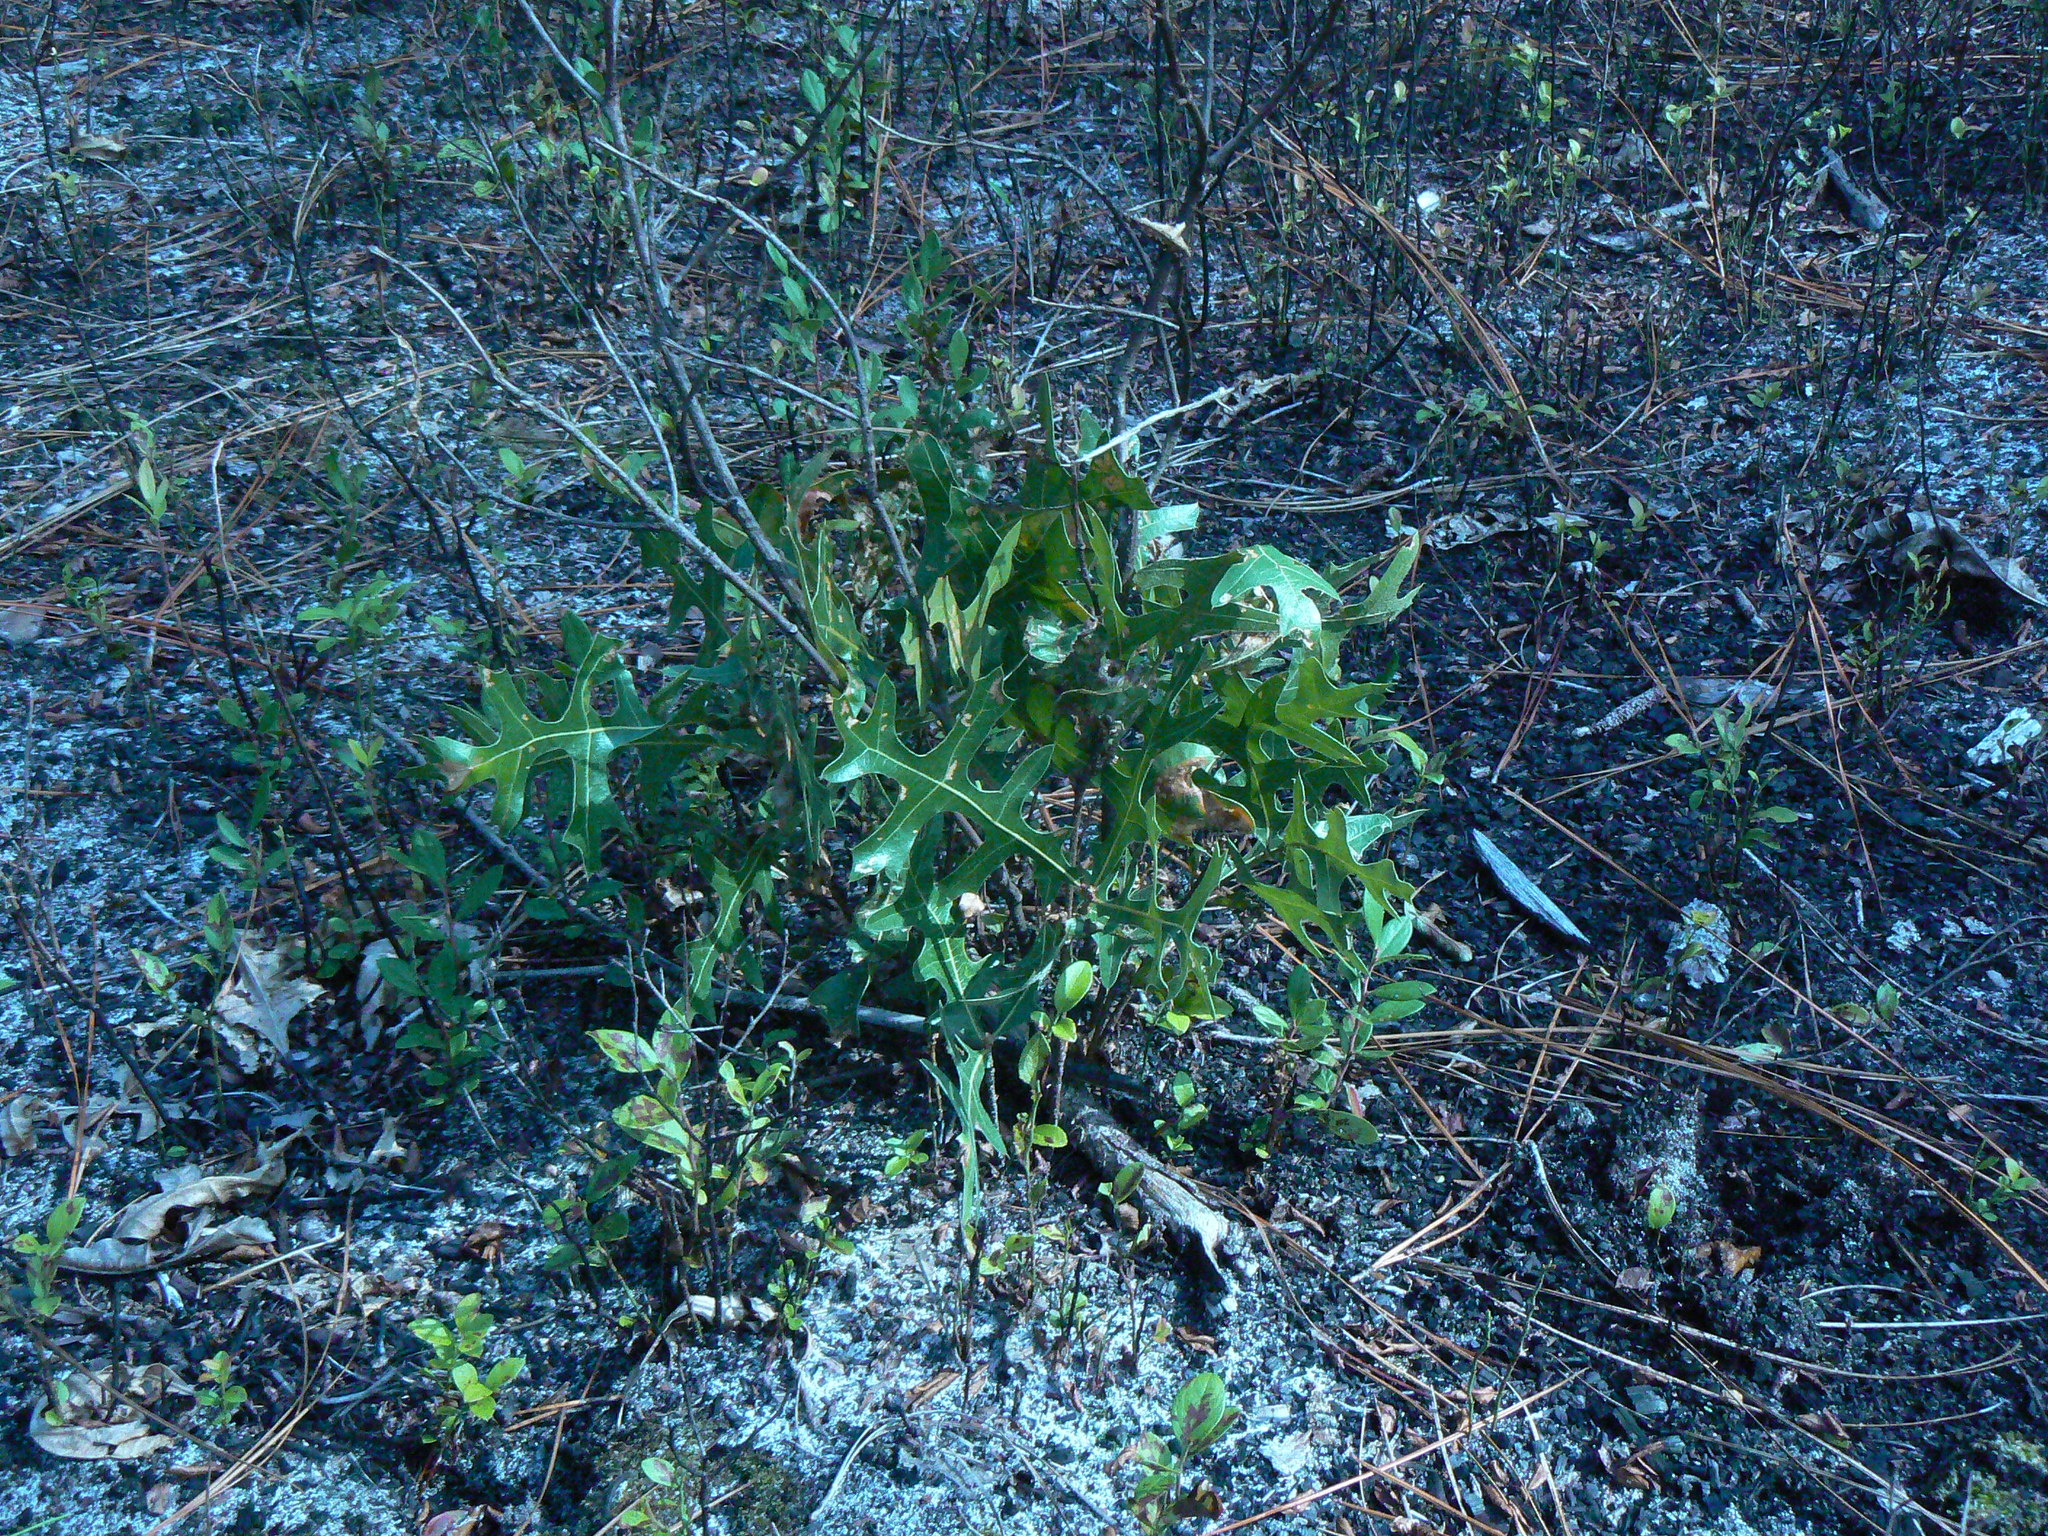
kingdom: Plantae
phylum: Tracheophyta
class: Magnoliopsida
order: Fagales
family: Fagaceae
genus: Quercus
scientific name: Quercus laevis
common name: Turkey oak
